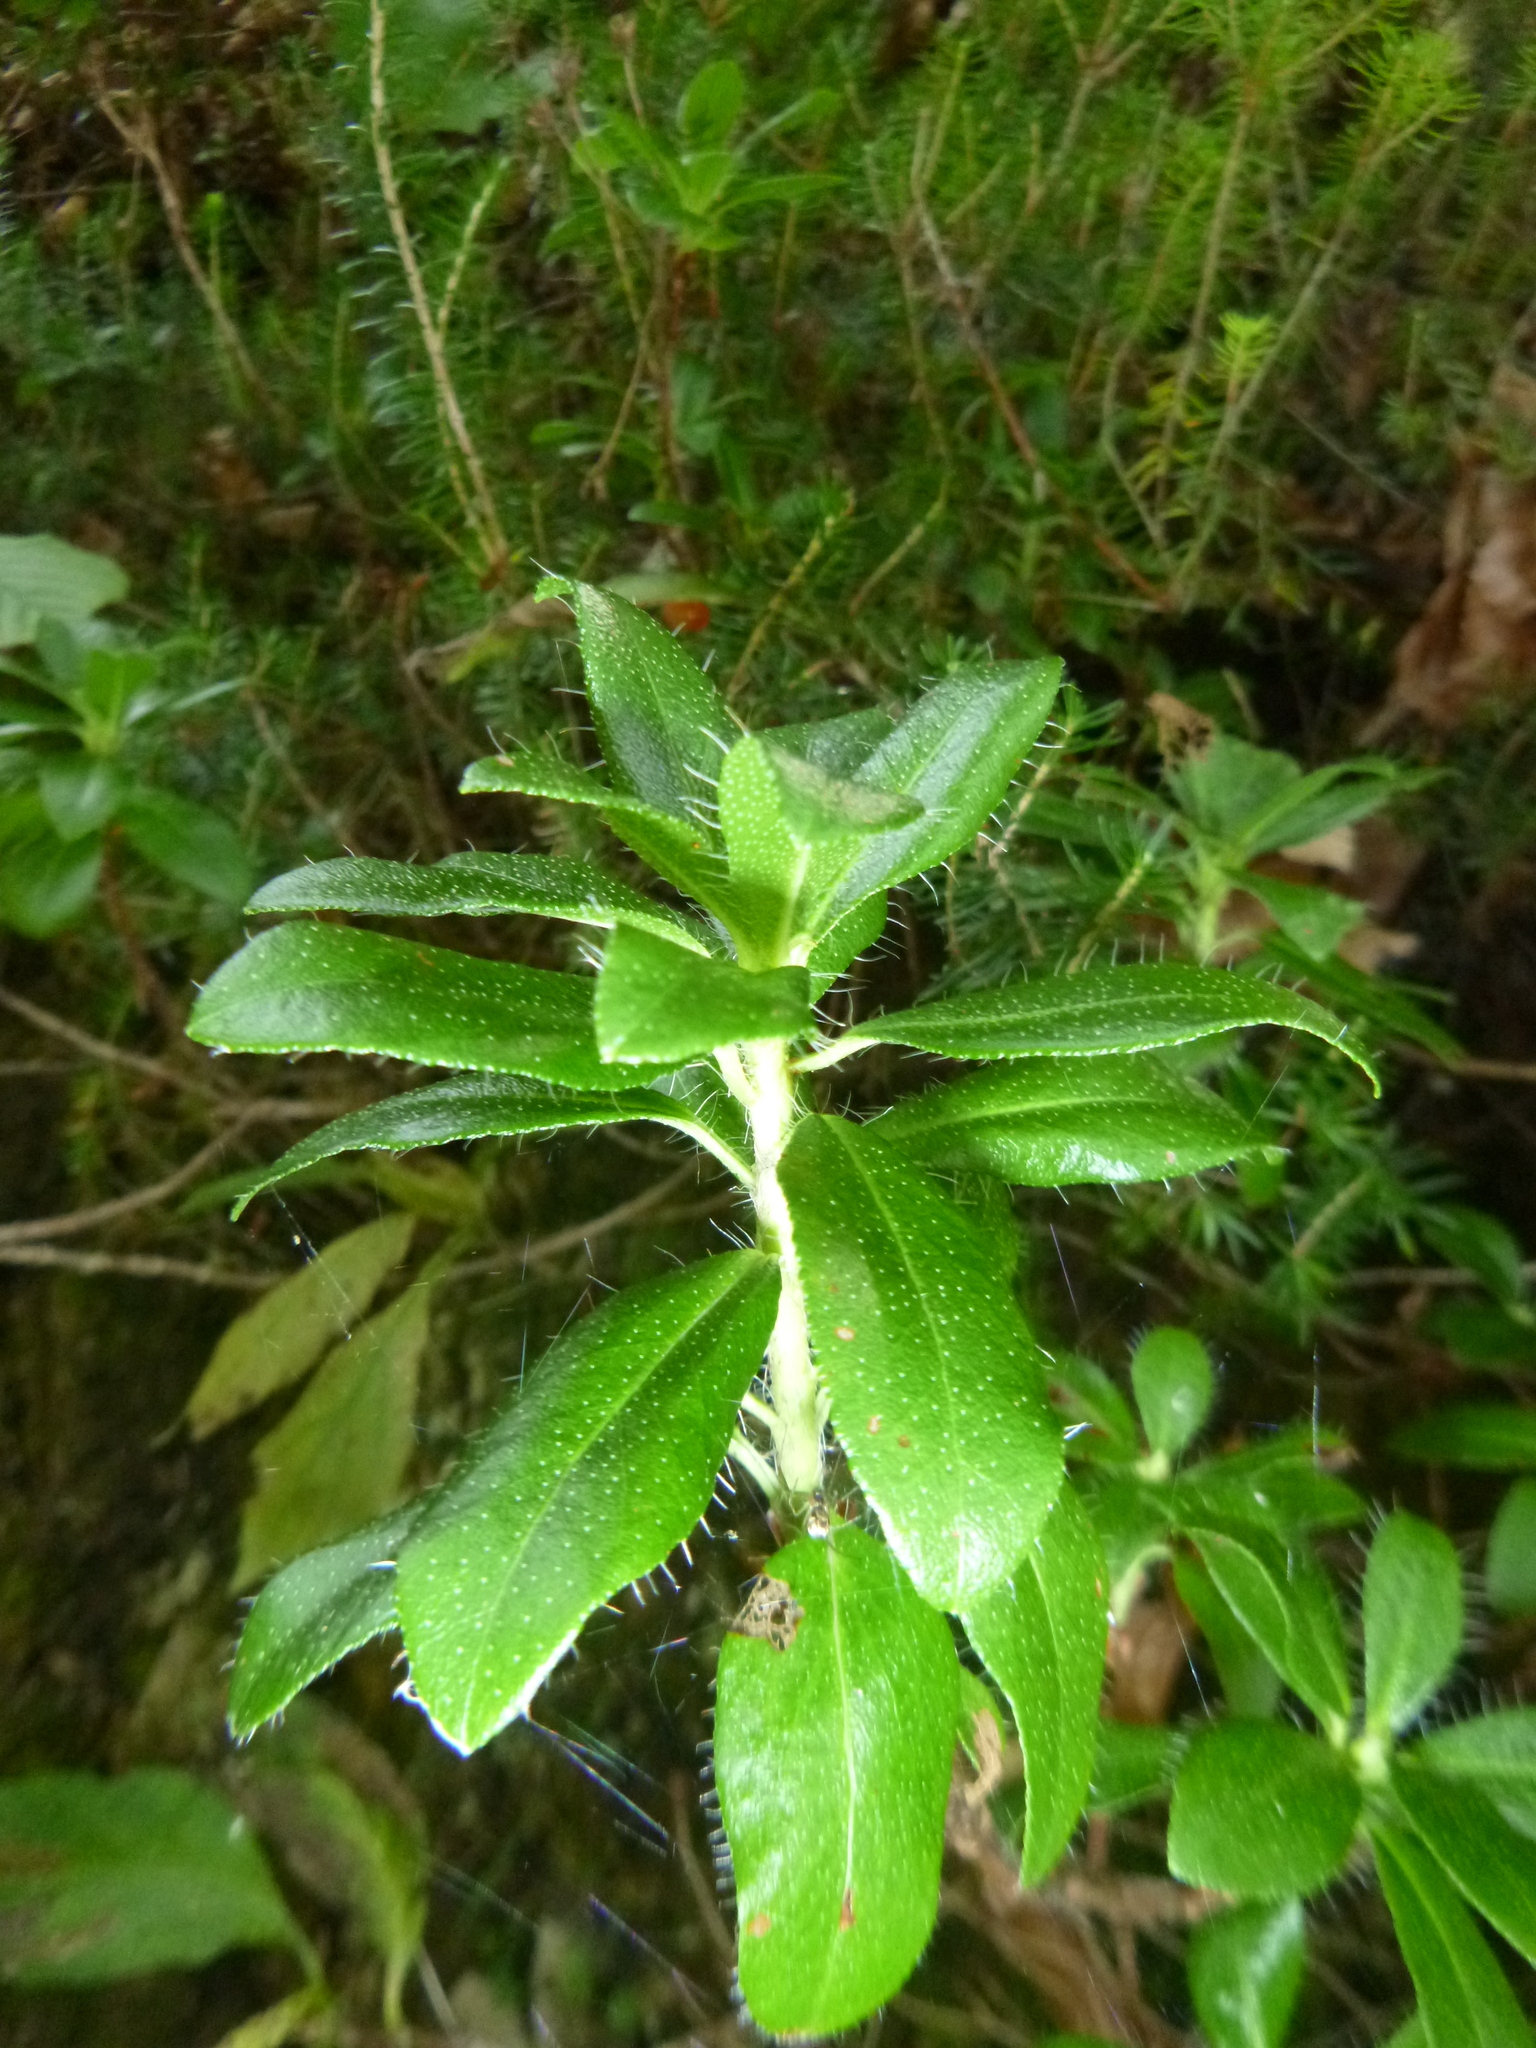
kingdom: Plantae
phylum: Tracheophyta
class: Magnoliopsida
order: Ericales
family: Ericaceae
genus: Rhododendron
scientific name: Rhododendron hirsutum
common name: Hairy alpenrose
